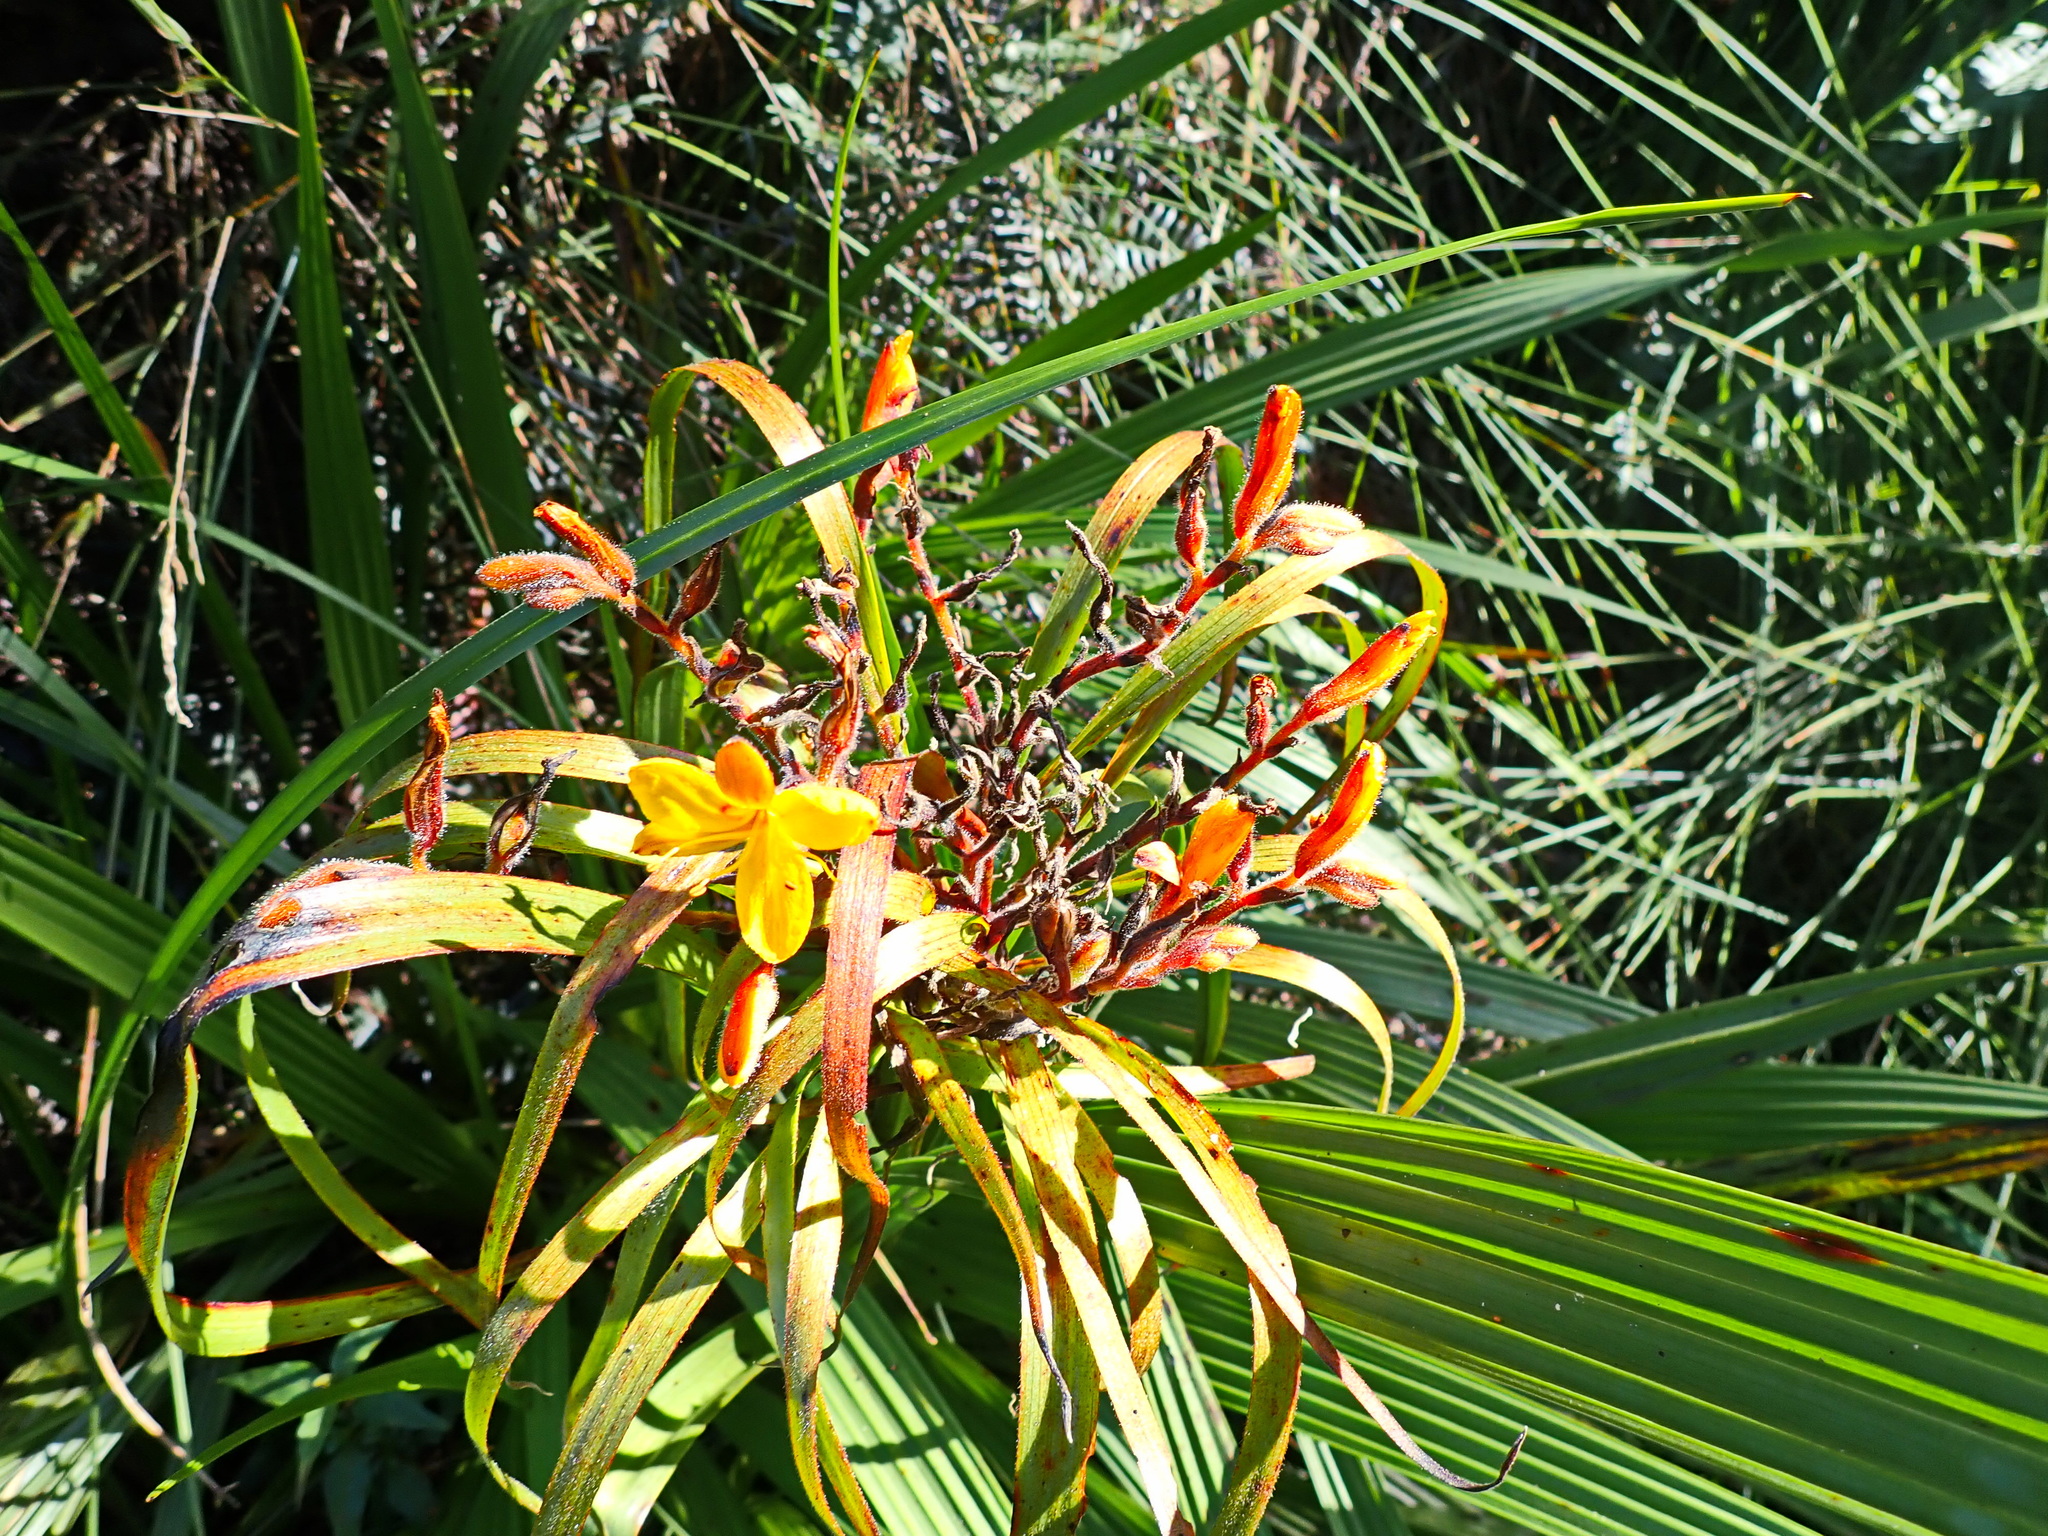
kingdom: Plantae
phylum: Tracheophyta
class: Liliopsida
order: Commelinales
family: Haemodoraceae
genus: Wachendorfia
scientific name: Wachendorfia thyrsiflora
